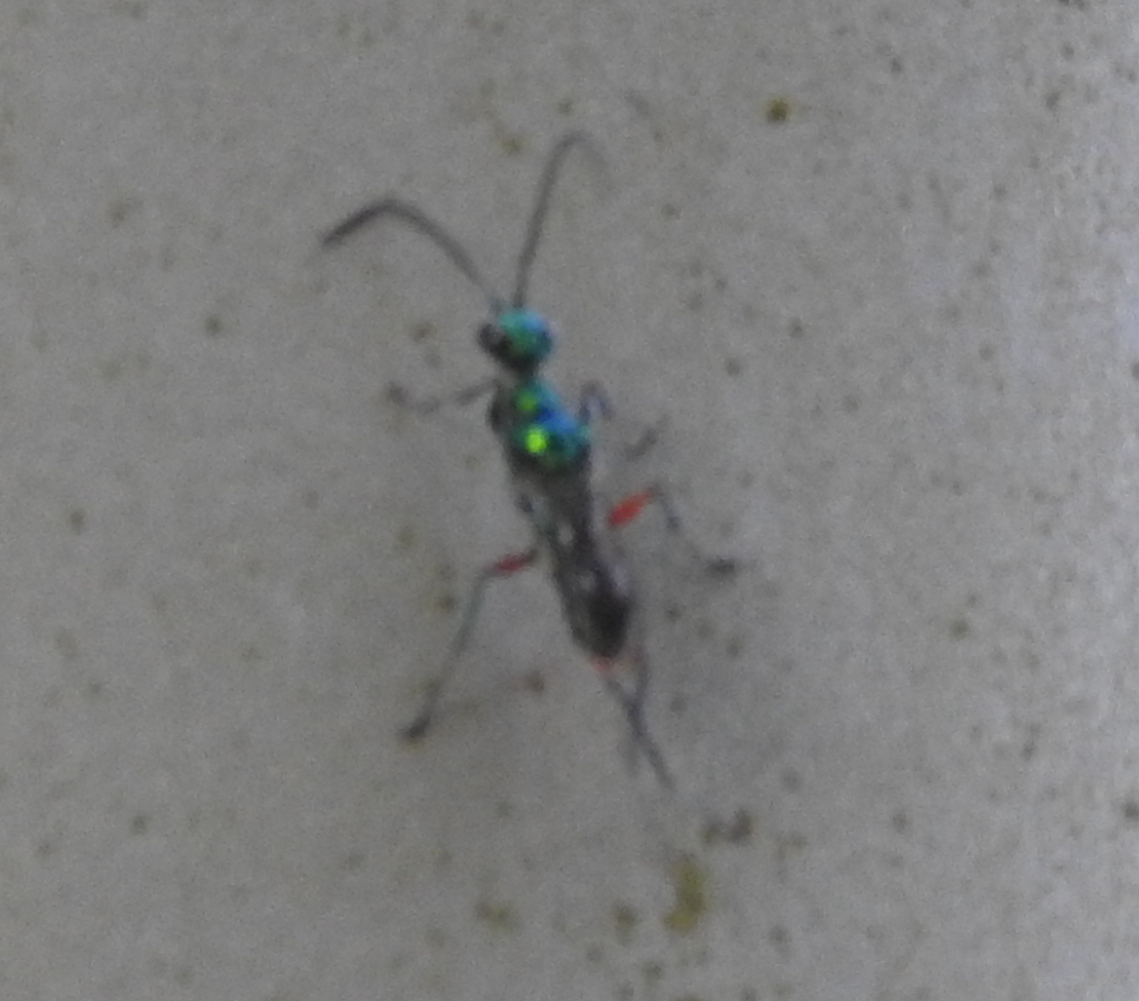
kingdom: Animalia
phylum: Arthropoda
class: Insecta
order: Hymenoptera
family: Ampulicidae
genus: Ampulex
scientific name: Ampulex compressa
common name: Emerald cockroach wasp
